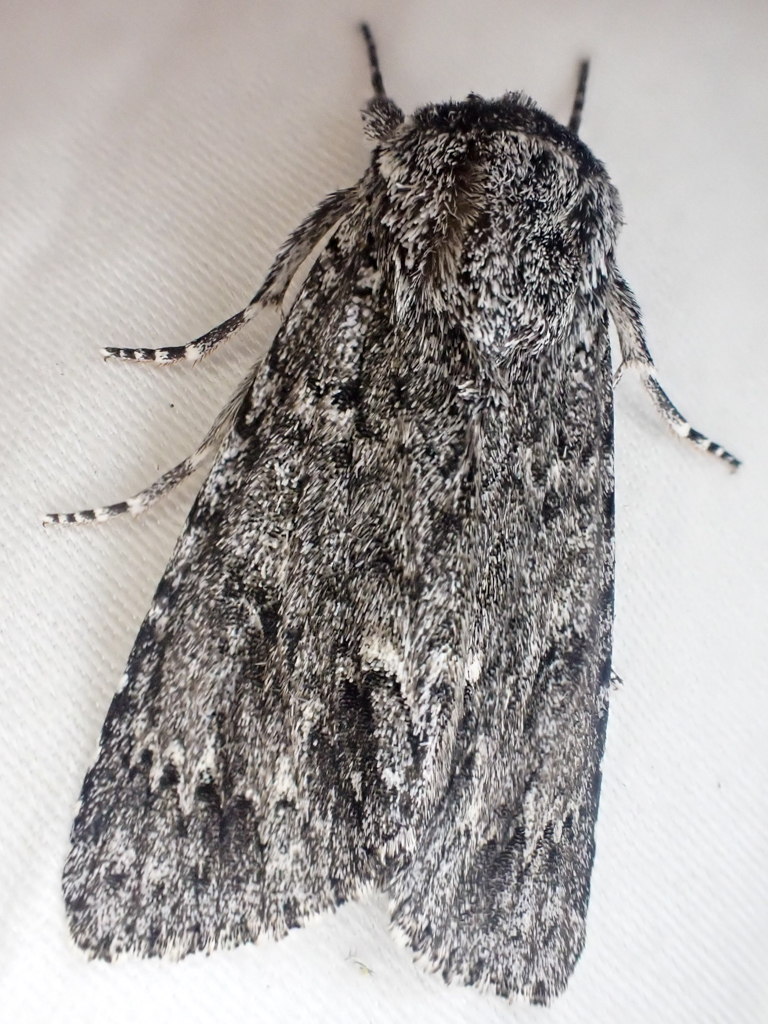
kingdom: Animalia
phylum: Arthropoda
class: Insecta
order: Lepidoptera
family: Noctuidae
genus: Acronicta
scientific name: Acronicta impleta
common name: Powdered dagger
